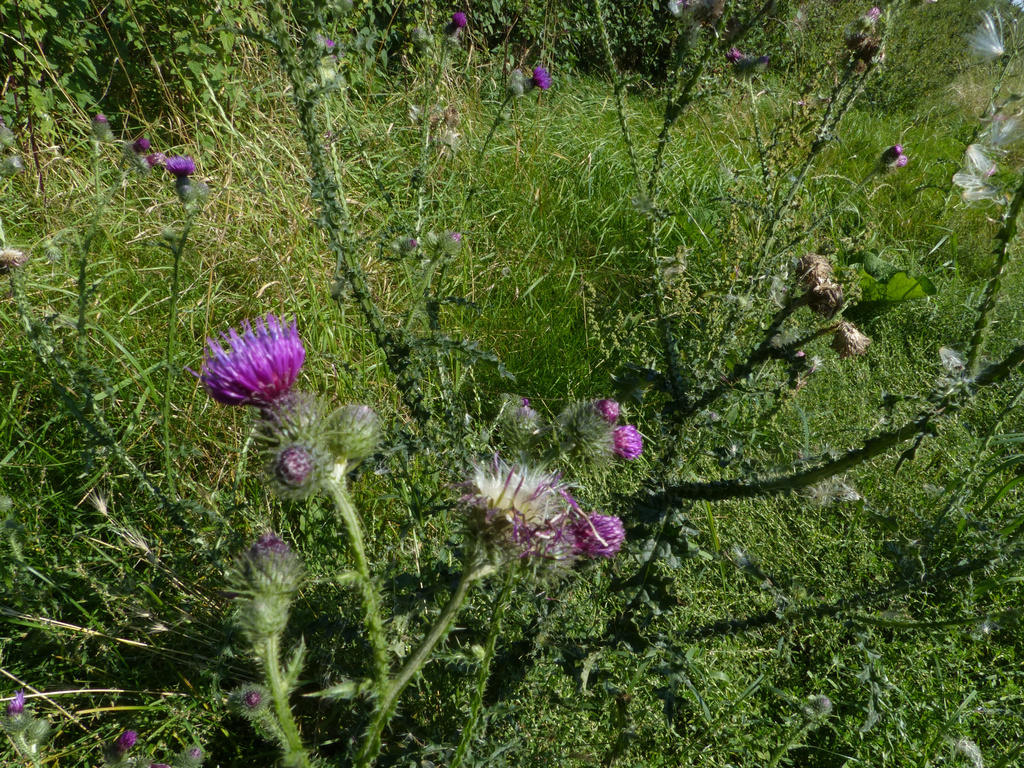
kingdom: Plantae
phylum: Tracheophyta
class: Magnoliopsida
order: Asterales
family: Asteraceae
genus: Carduus
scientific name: Carduus crispus
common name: Welted thistle
